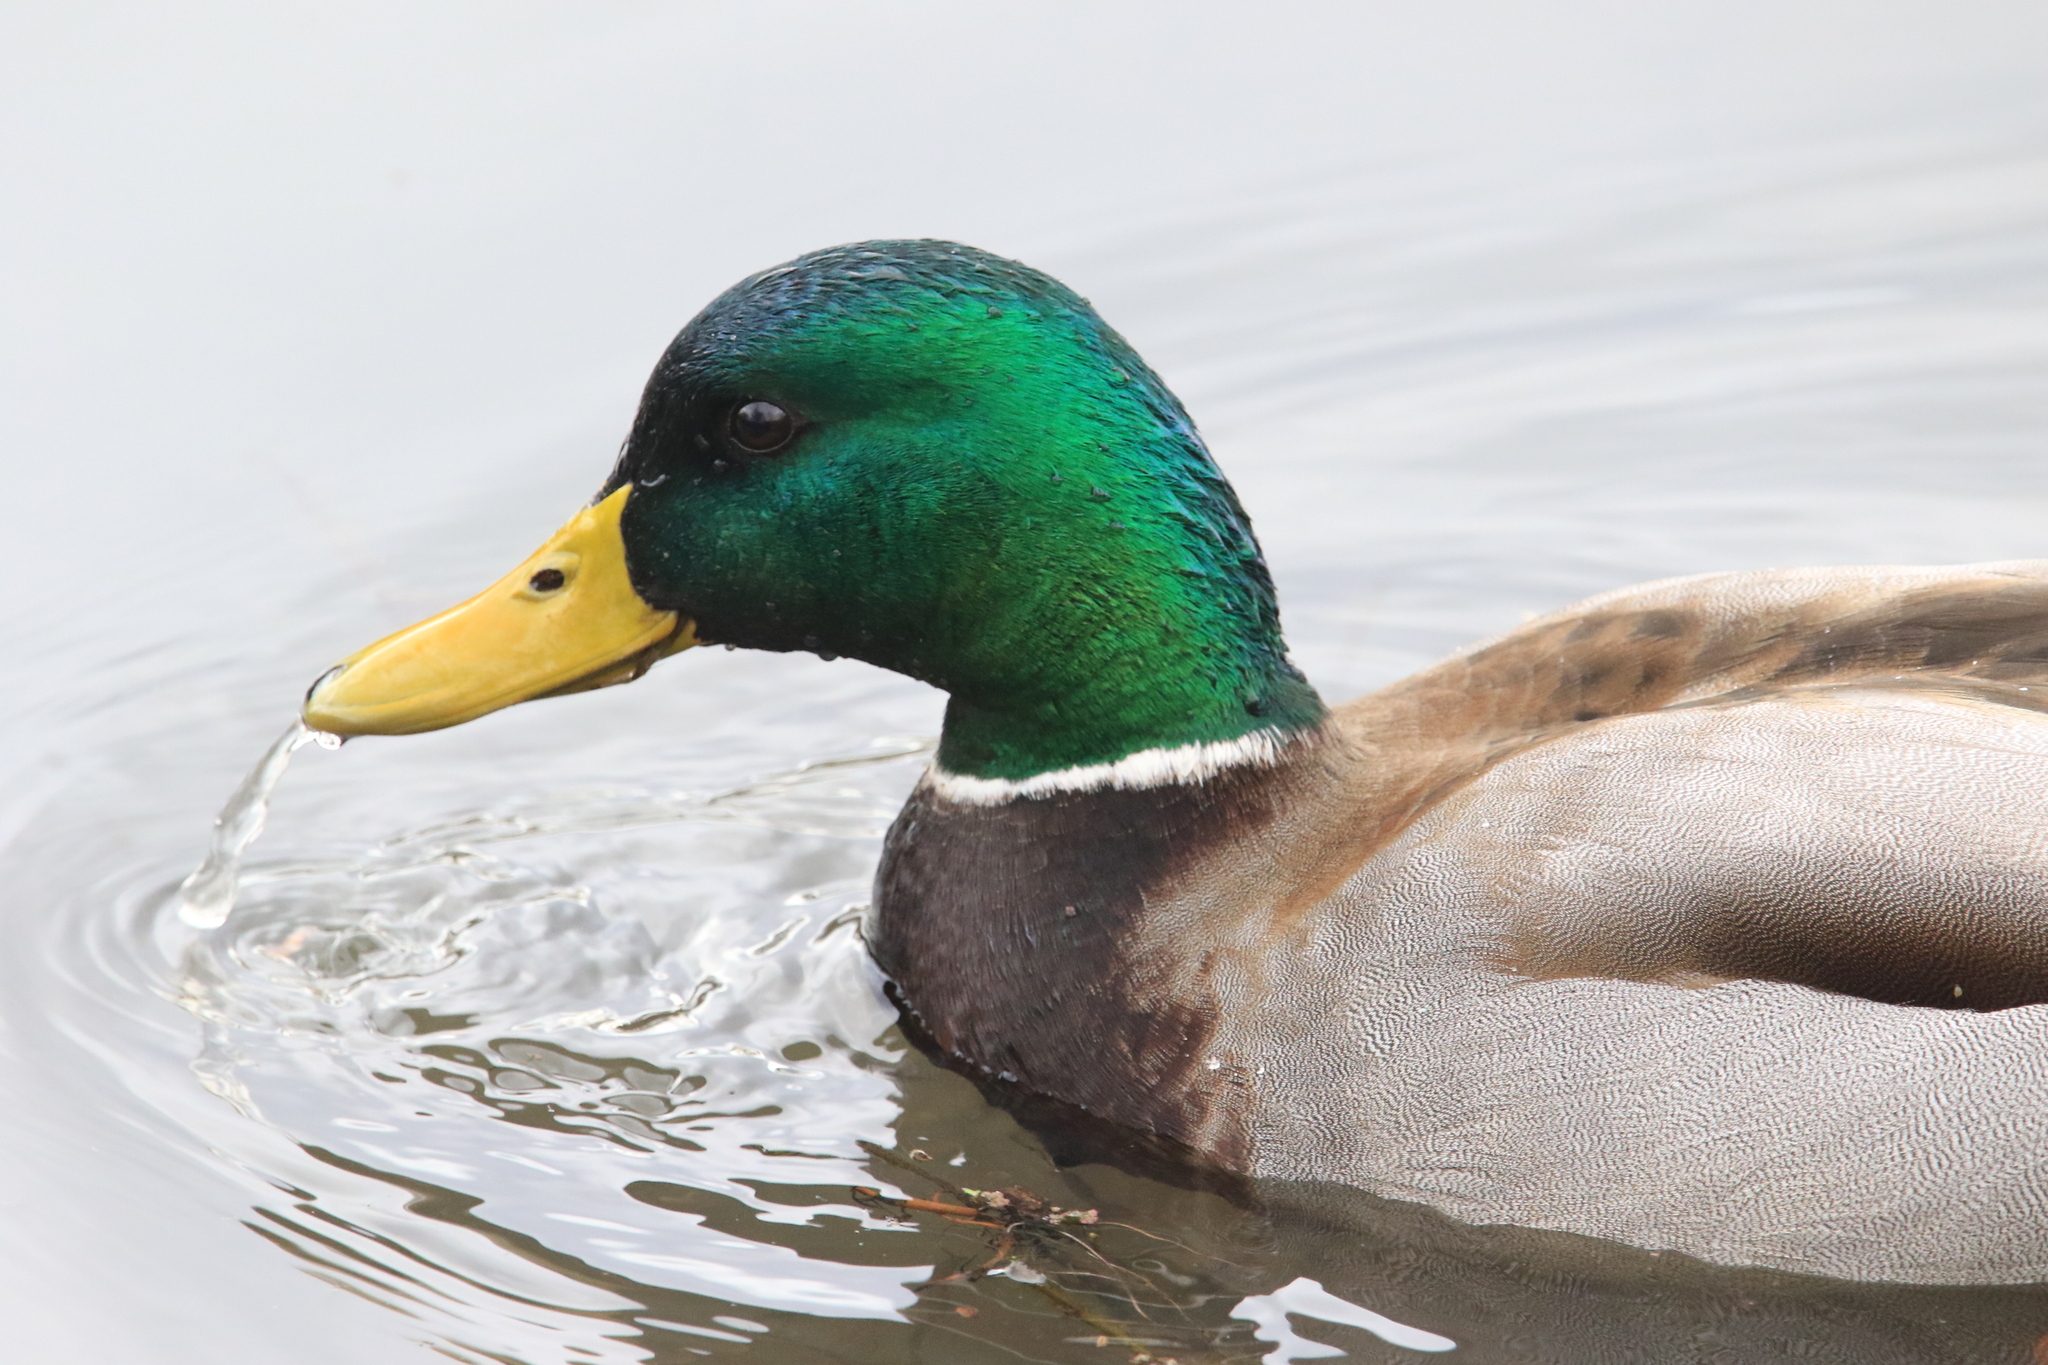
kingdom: Animalia
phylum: Chordata
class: Aves
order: Anseriformes
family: Anatidae
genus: Anas
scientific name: Anas platyrhynchos
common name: Mallard
